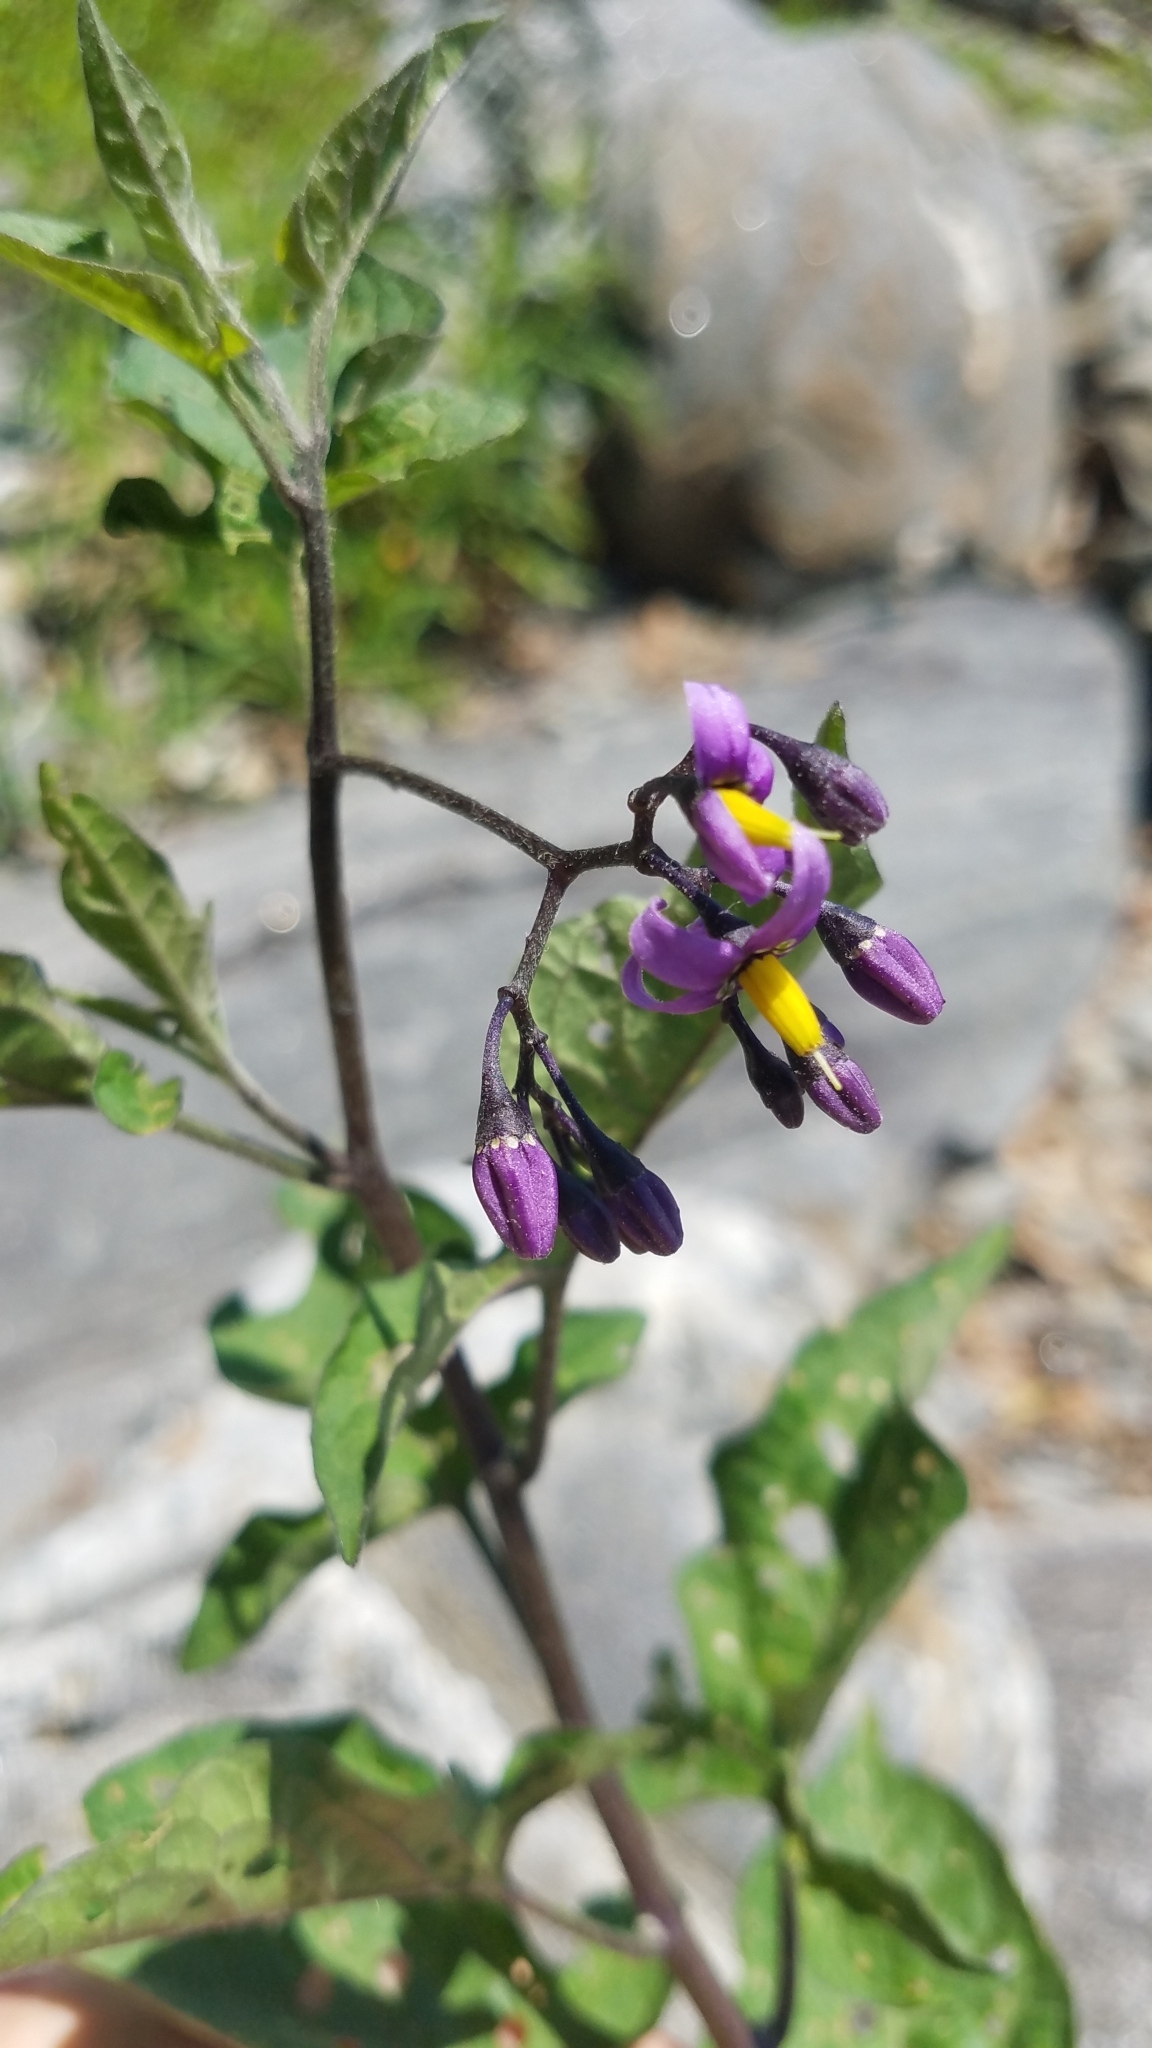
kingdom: Plantae
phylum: Tracheophyta
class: Magnoliopsida
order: Solanales
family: Solanaceae
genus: Solanum
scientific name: Solanum dulcamara
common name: Climbing nightshade
